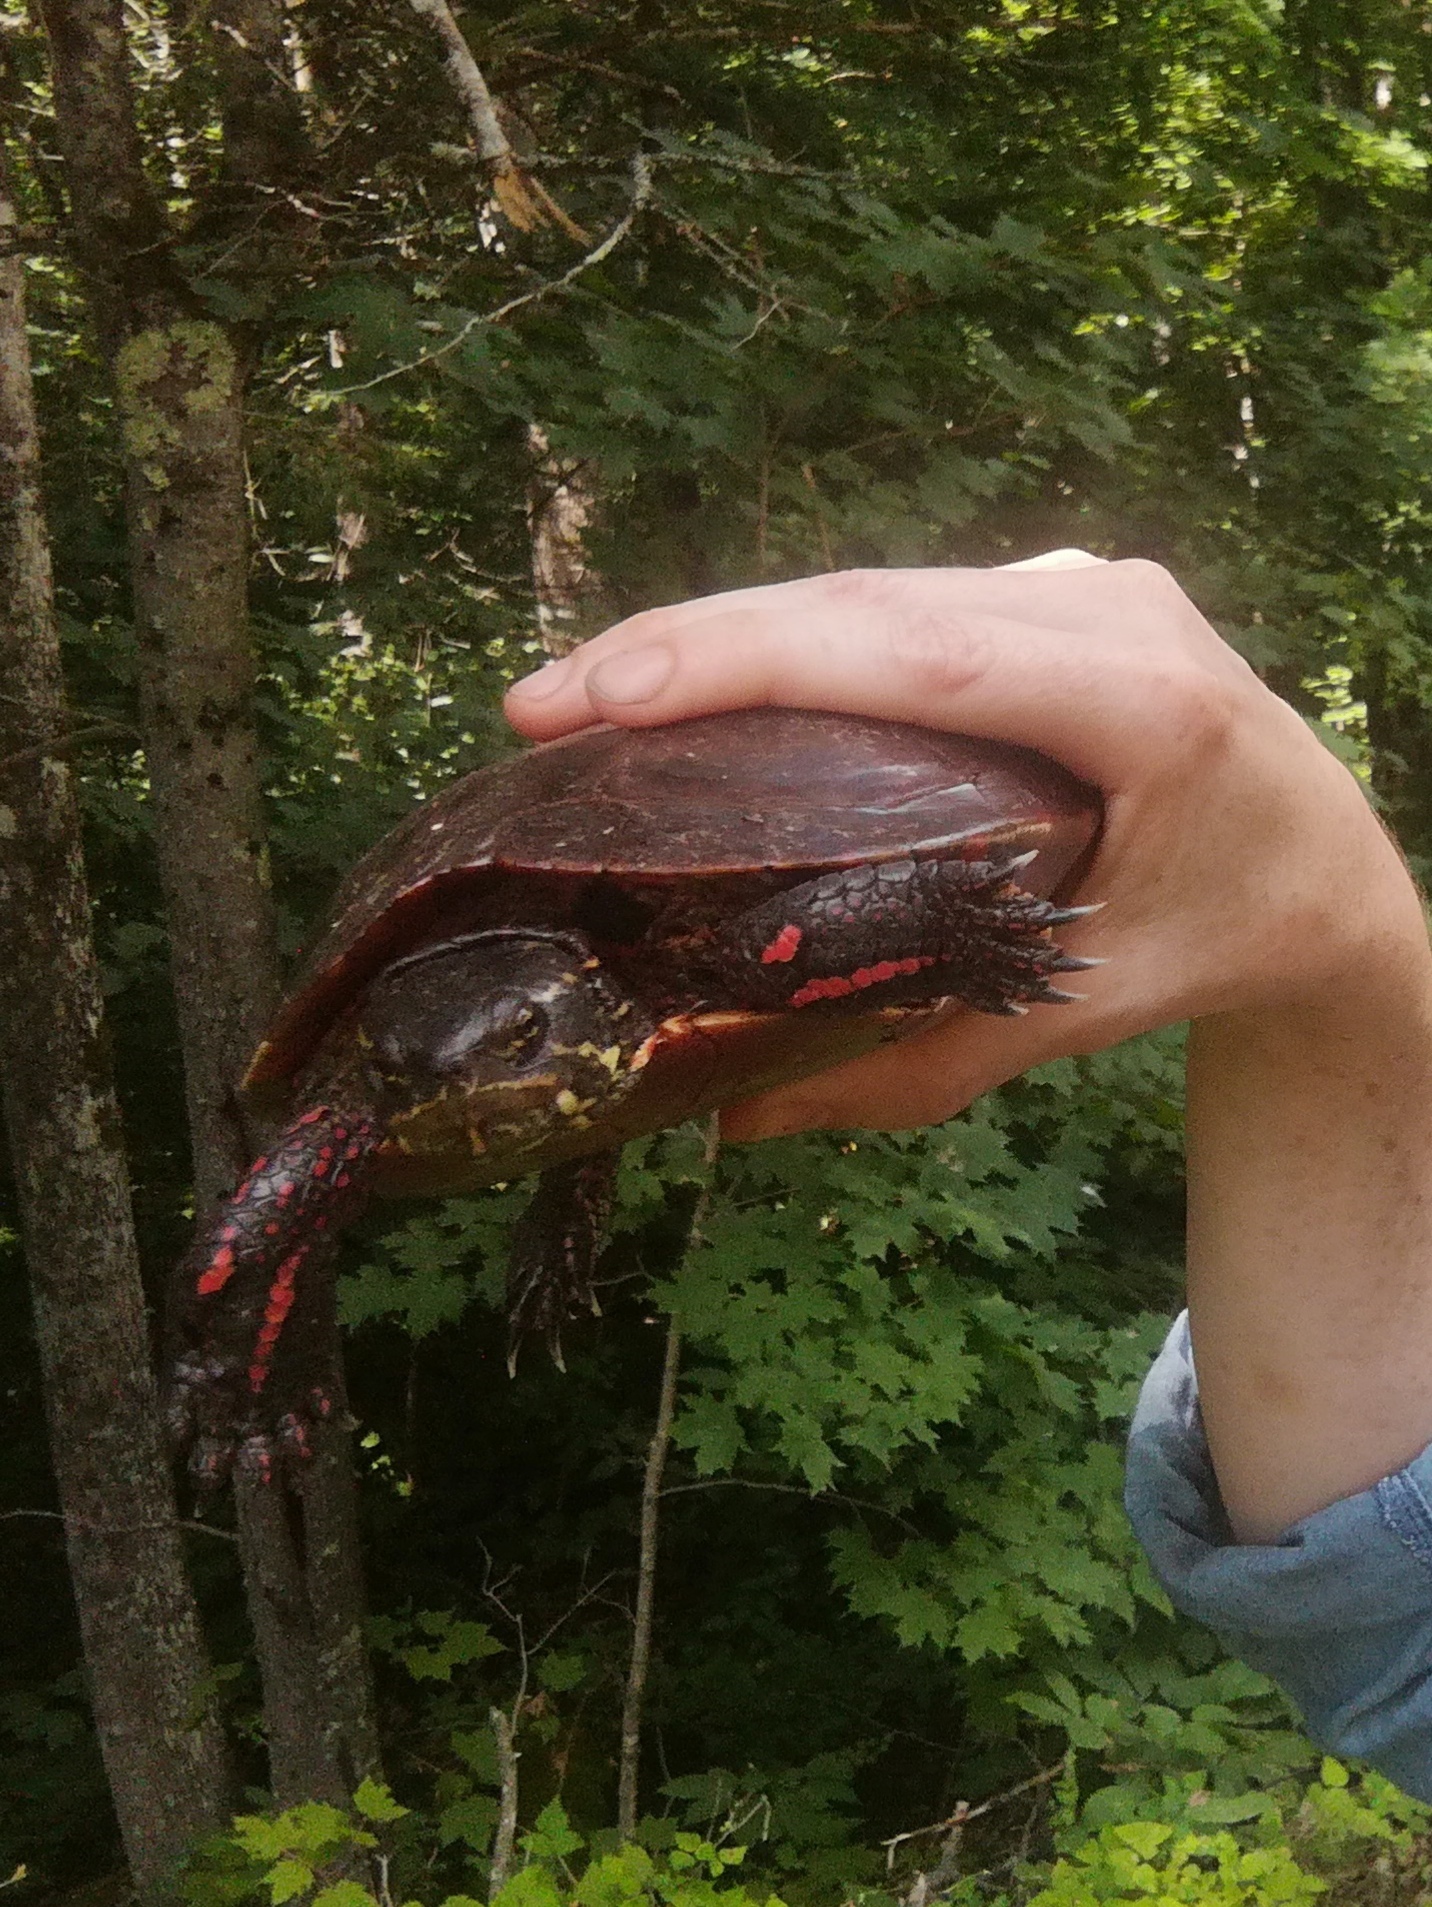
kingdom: Animalia
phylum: Chordata
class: Testudines
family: Emydidae
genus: Chrysemys
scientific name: Chrysemys picta
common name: Painted turtle
